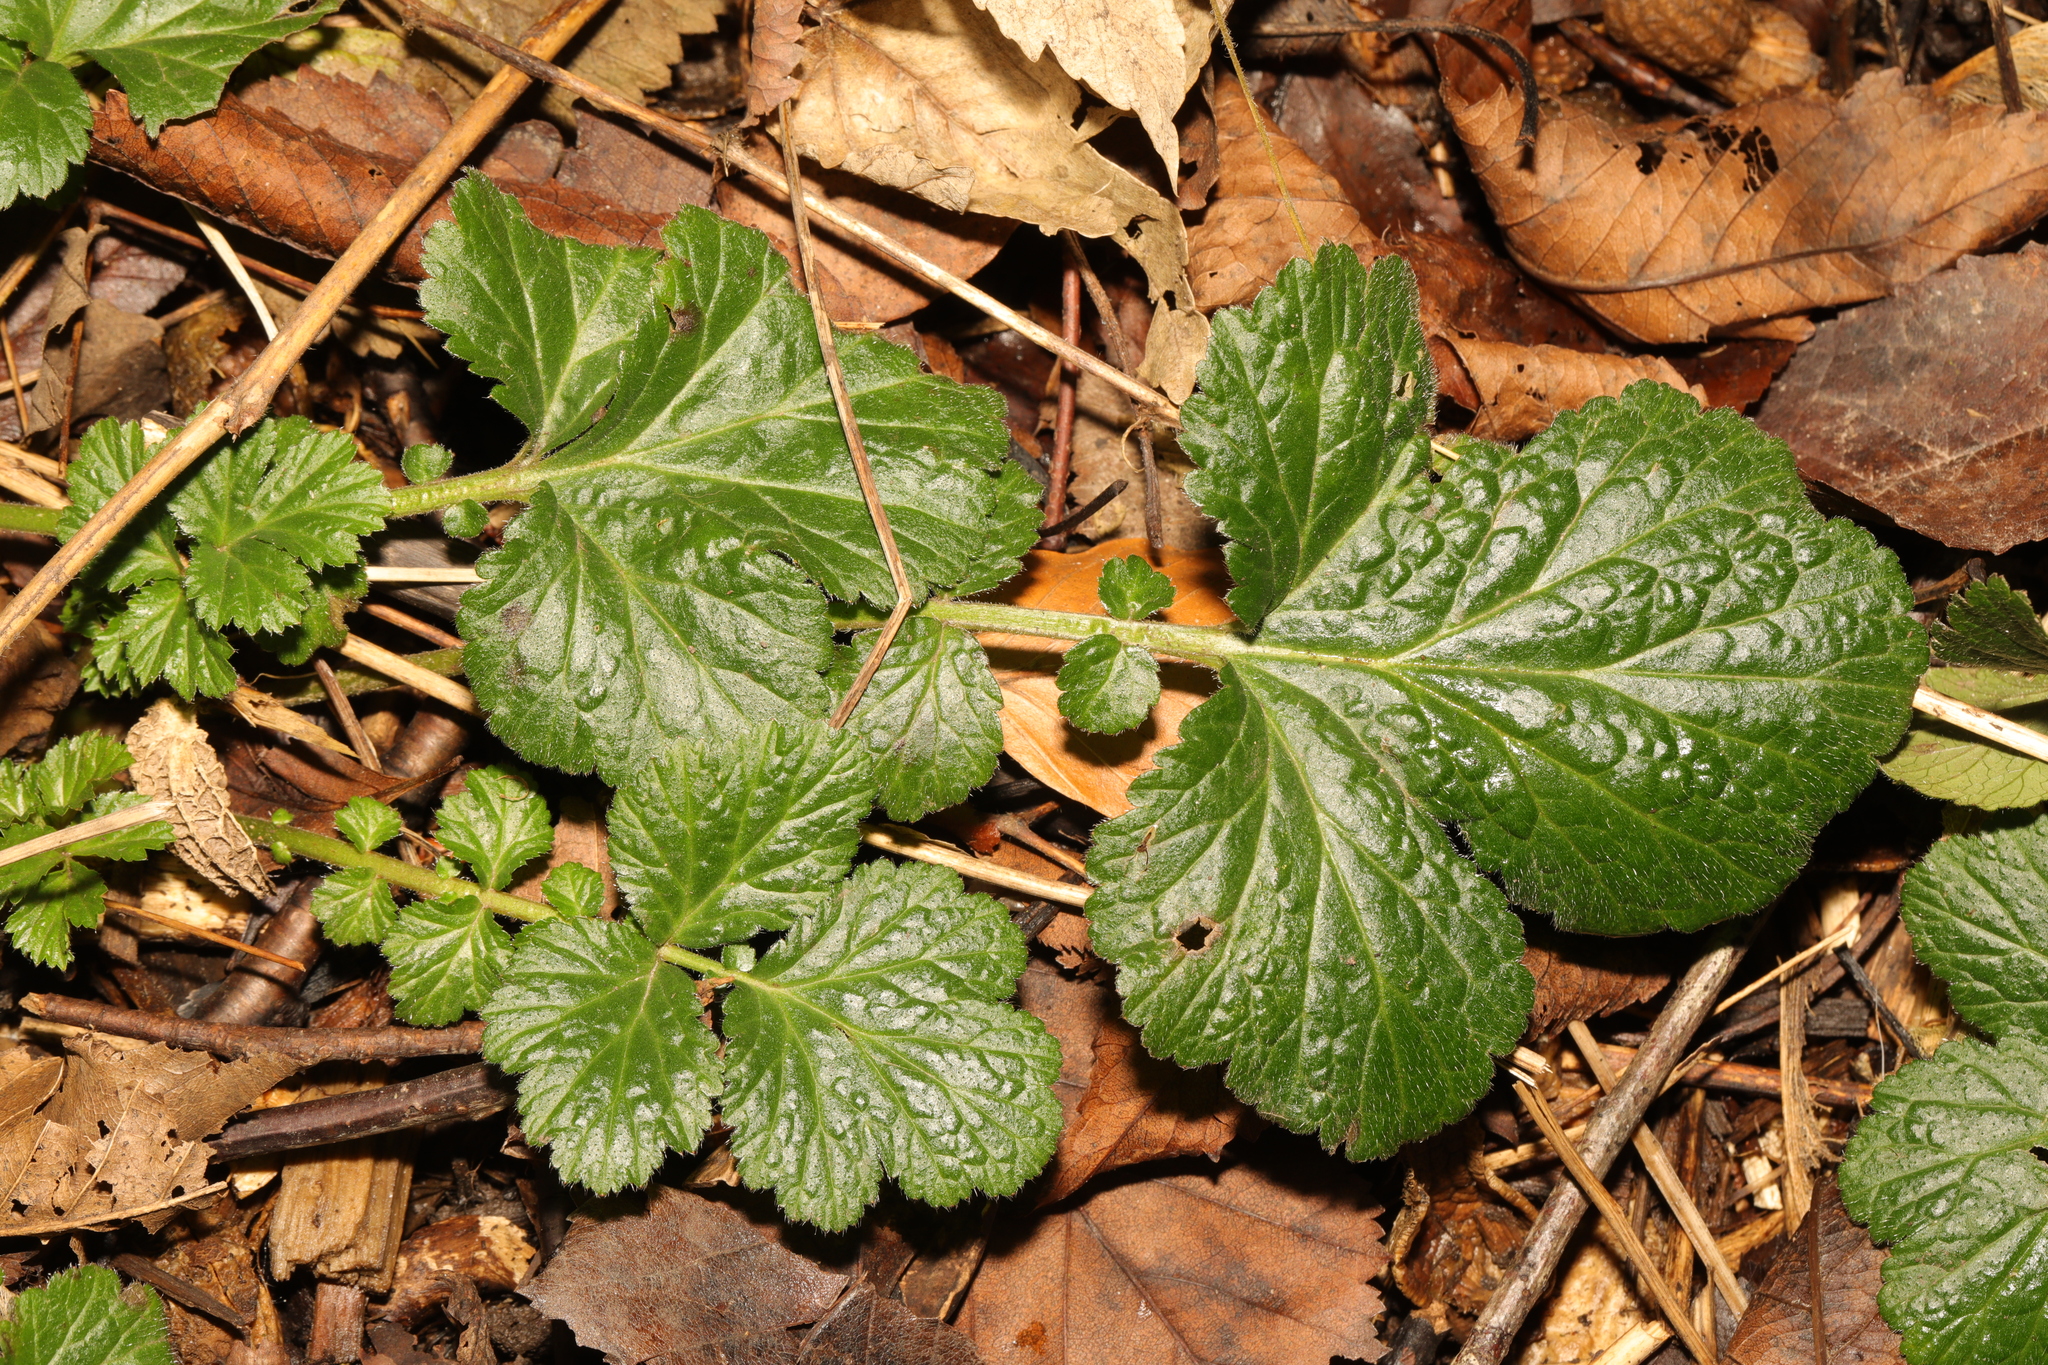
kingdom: Plantae
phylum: Tracheophyta
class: Magnoliopsida
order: Rosales
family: Rosaceae
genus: Geum
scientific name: Geum urbanum
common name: Wood avens
